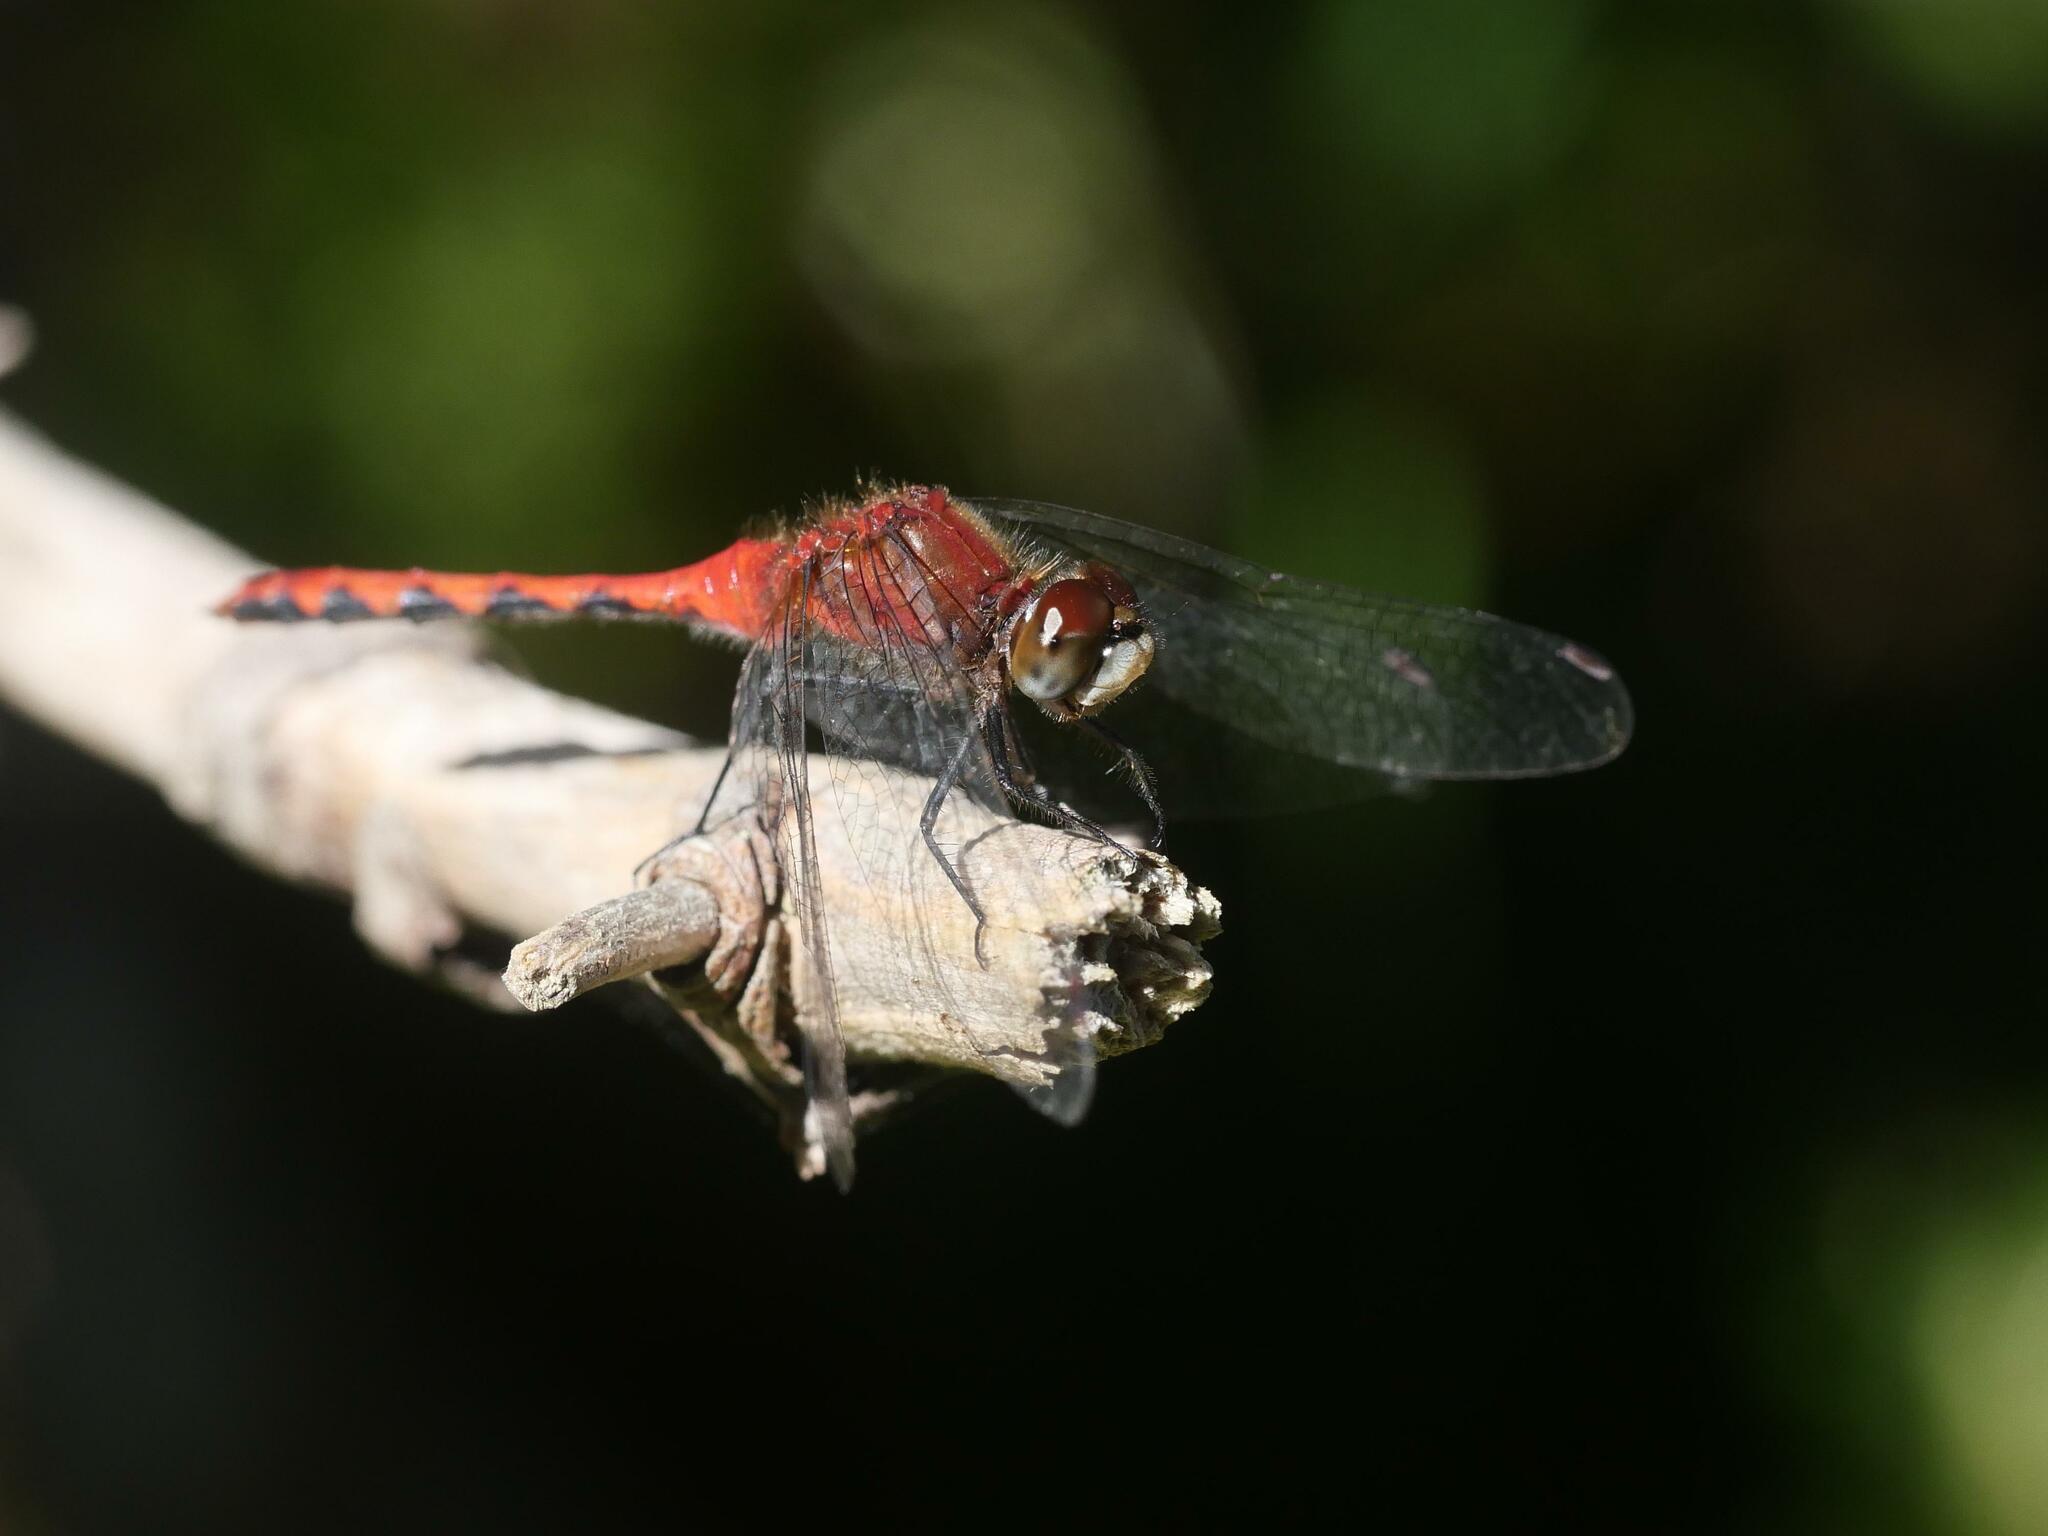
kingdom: Animalia
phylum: Arthropoda
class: Insecta
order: Odonata
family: Libellulidae
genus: Sympetrum
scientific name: Sympetrum obtrusum
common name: White-faced meadowhawk
